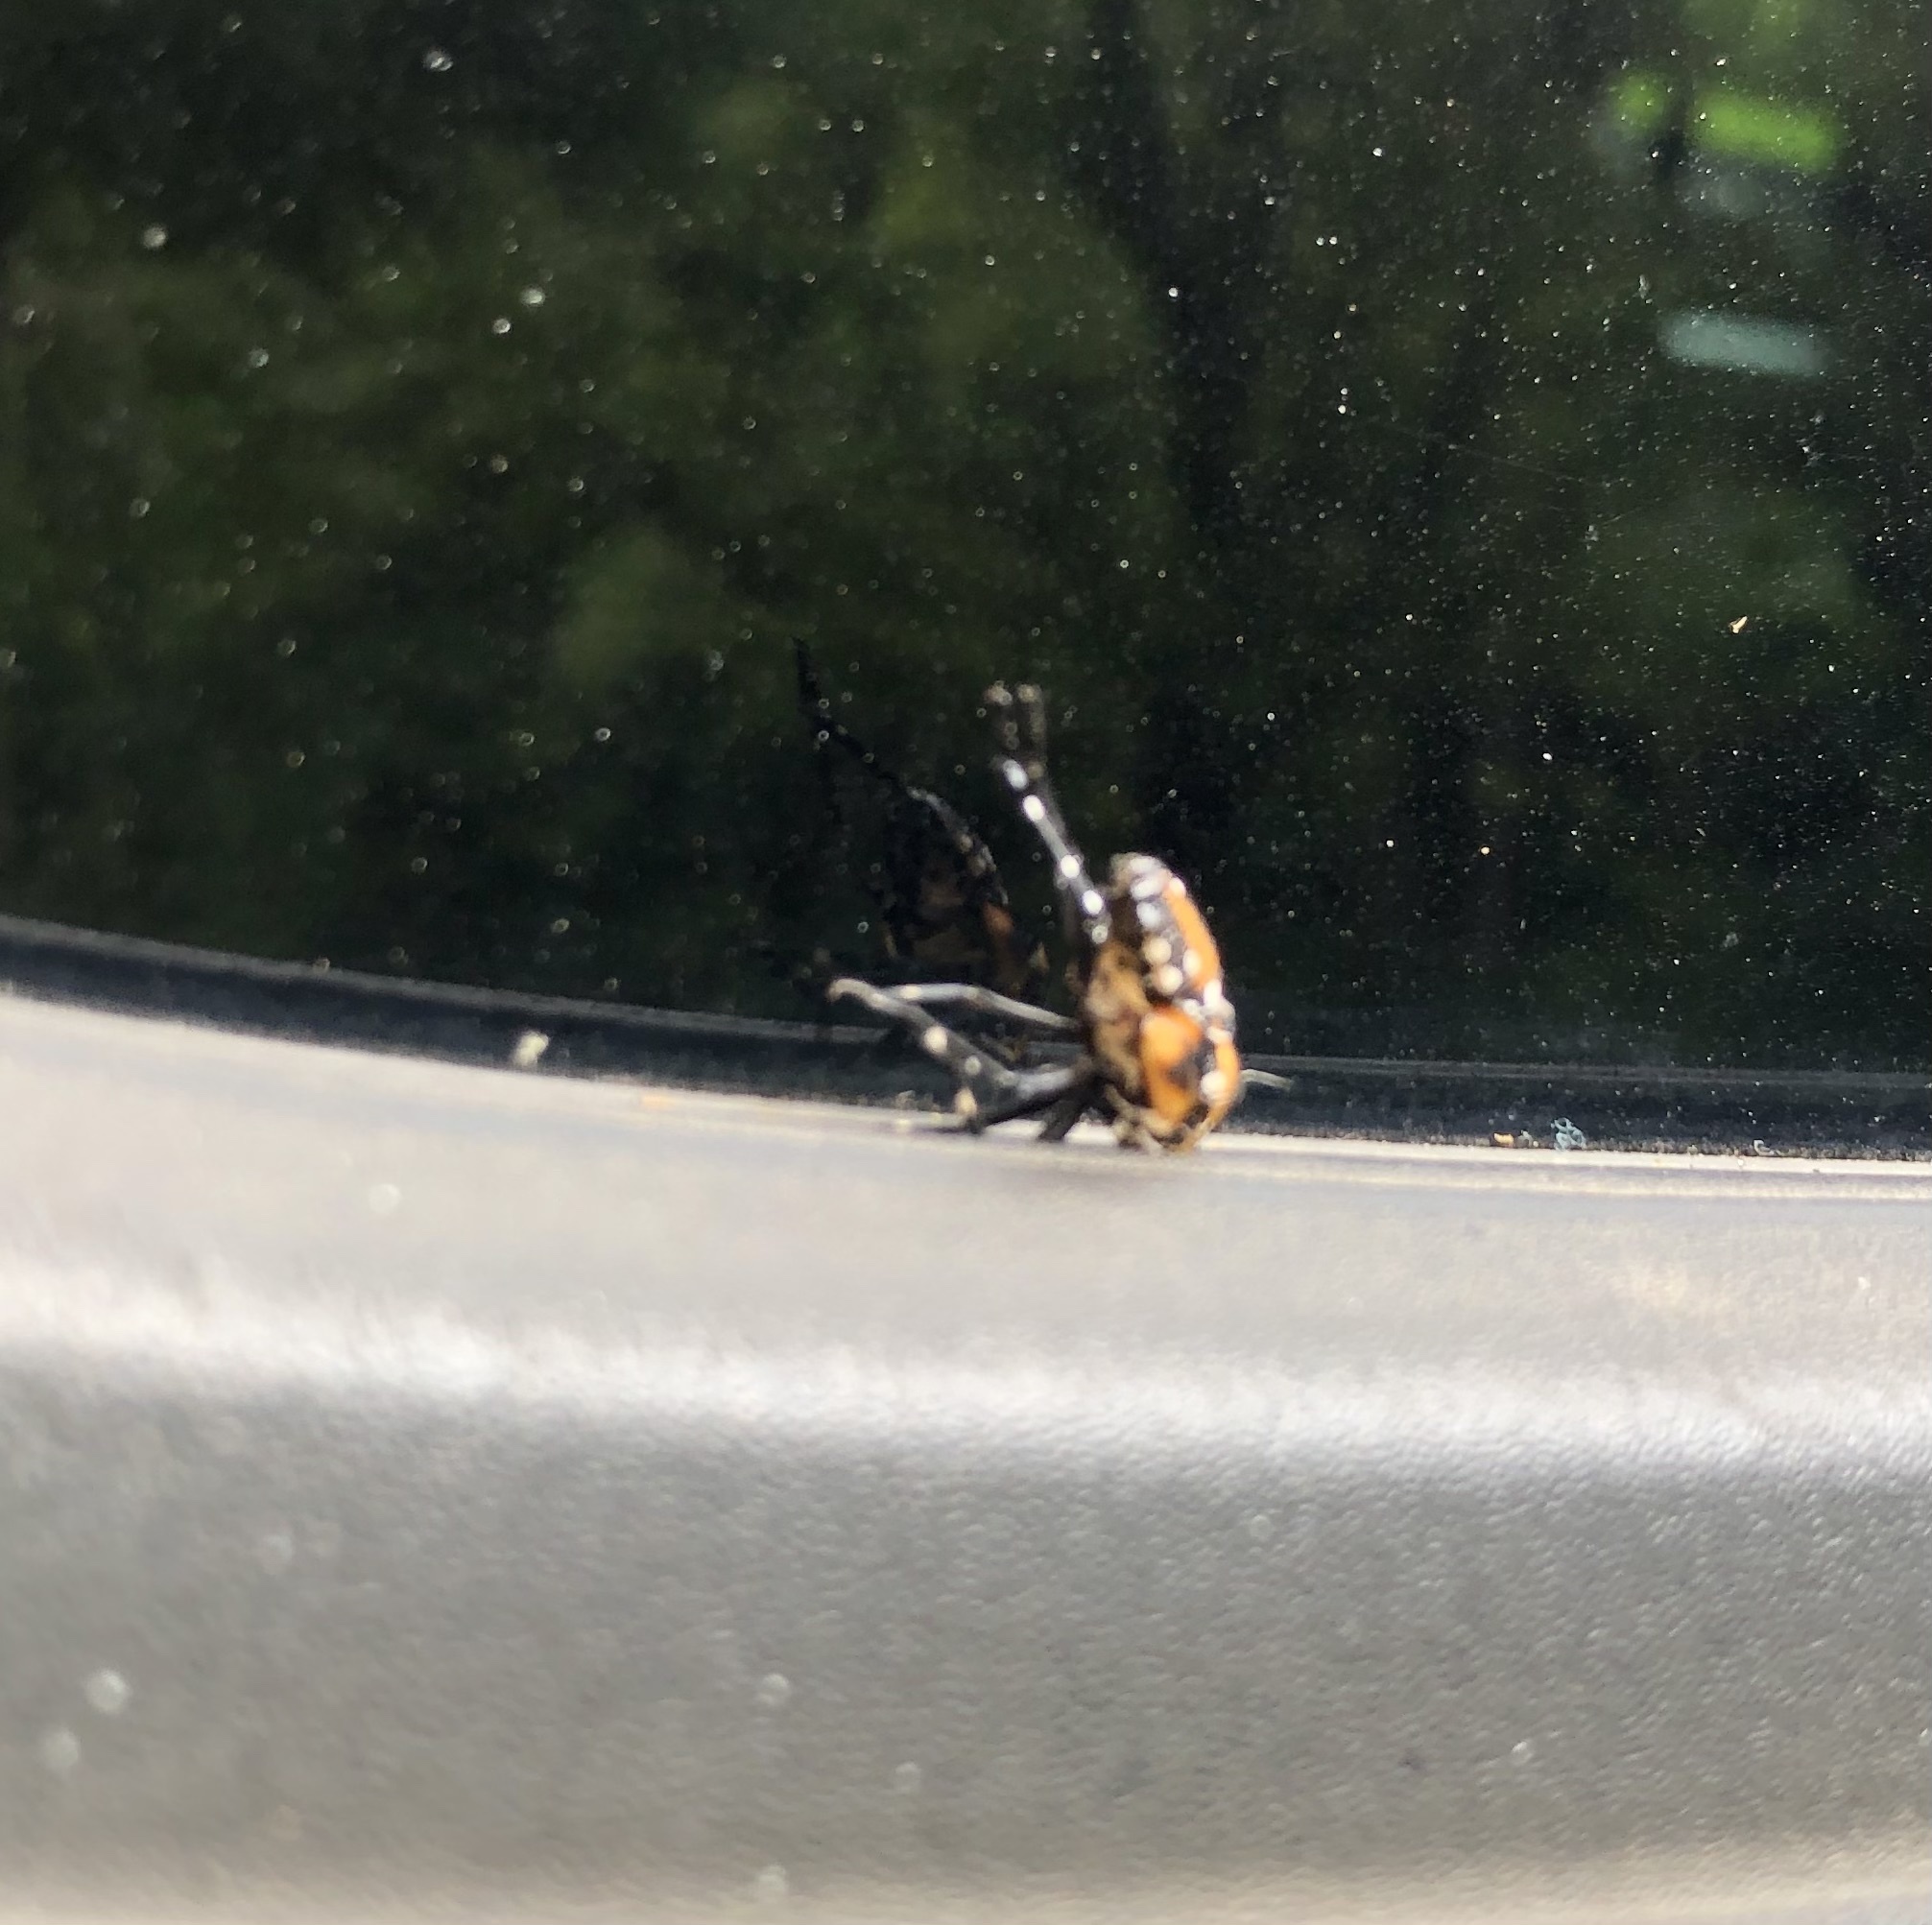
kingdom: Animalia
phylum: Arthropoda
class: Insecta
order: Hemiptera
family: Pentatomidae
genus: Murgantia
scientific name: Murgantia histrionica
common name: Harlequin bug
